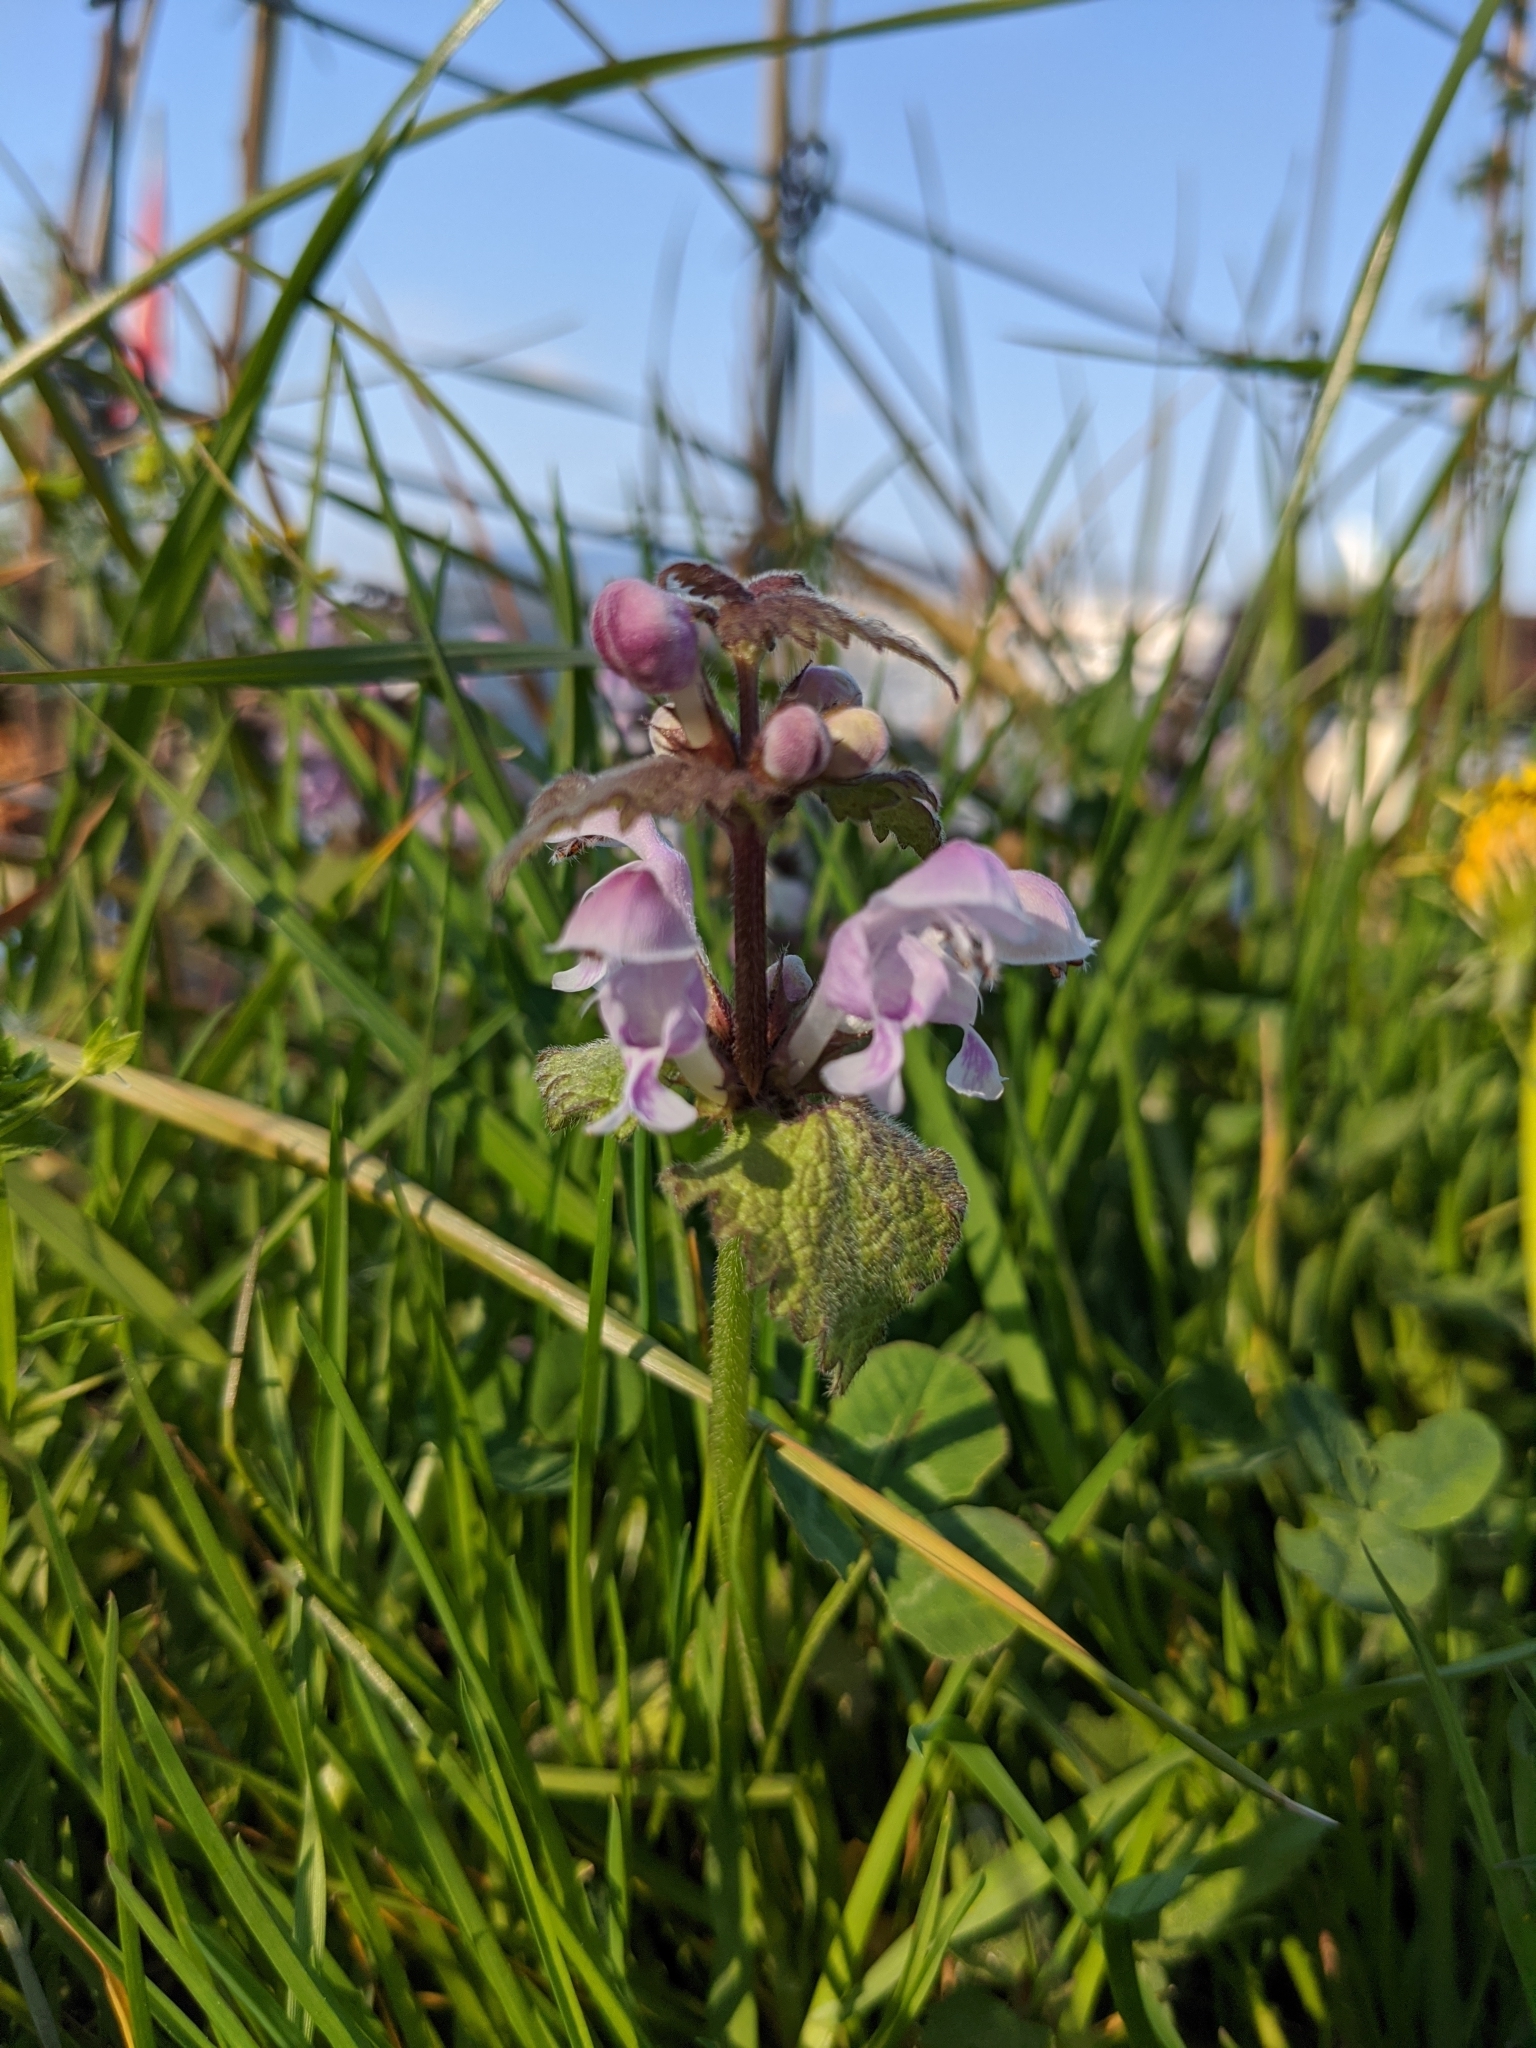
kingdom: Plantae
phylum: Tracheophyta
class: Magnoliopsida
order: Lamiales
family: Lamiaceae
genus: Lamium
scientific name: Lamium maculatum
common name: Spotted dead-nettle
